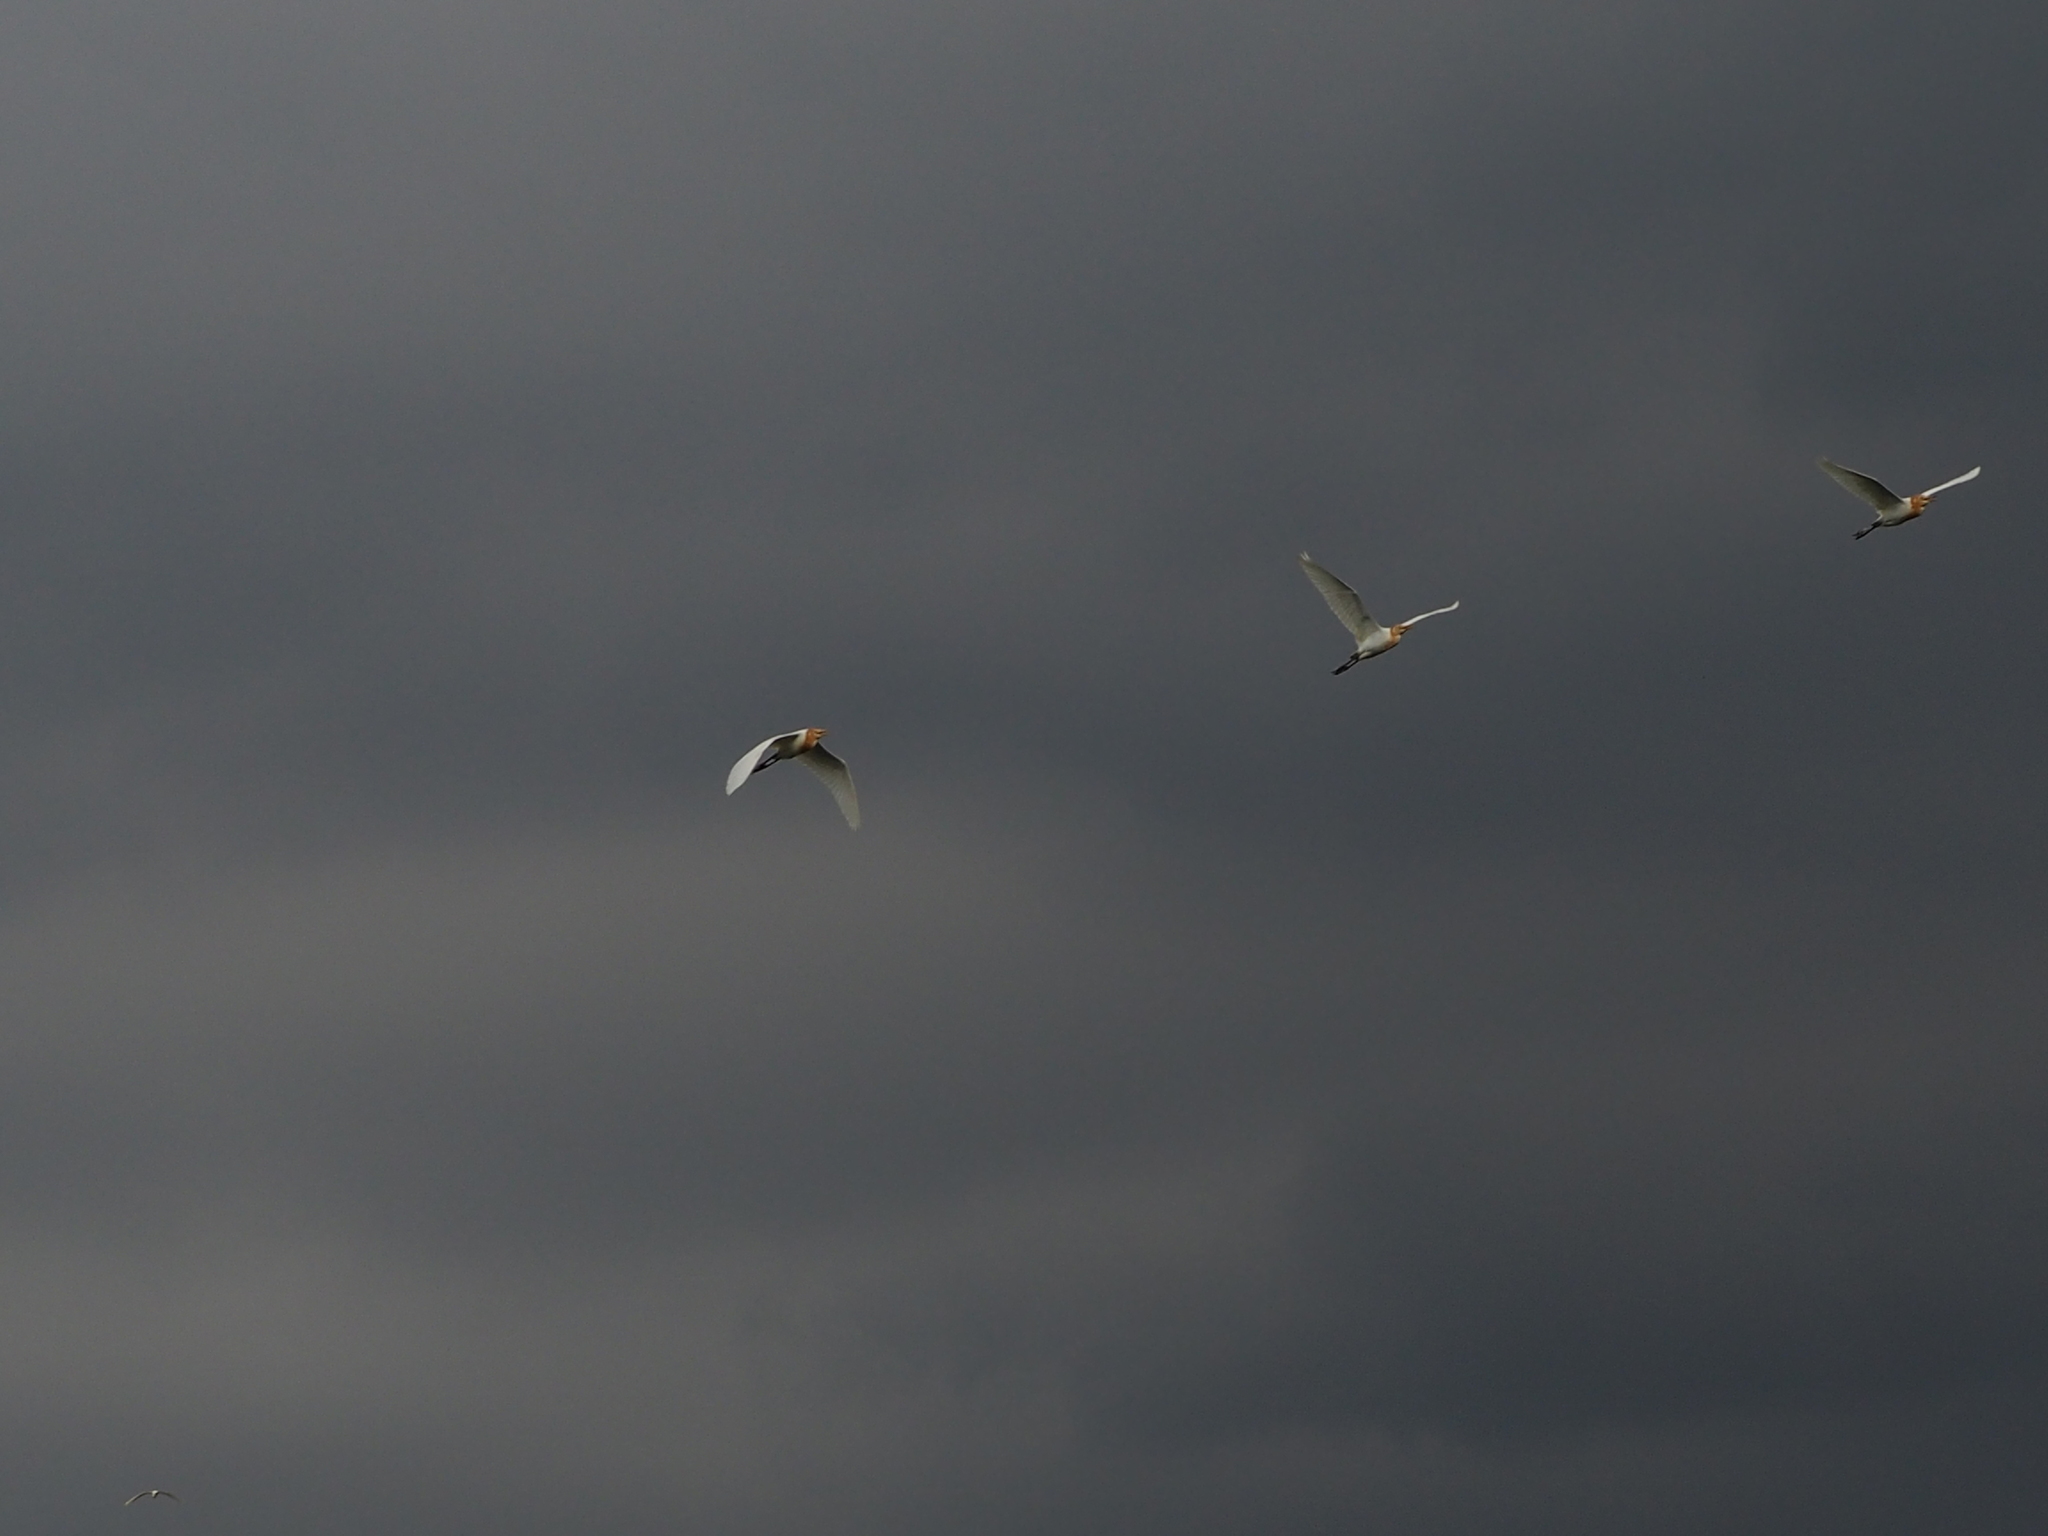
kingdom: Animalia
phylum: Chordata
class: Aves
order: Pelecaniformes
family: Ardeidae
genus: Bubulcus
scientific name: Bubulcus coromandus
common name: Eastern cattle egret
